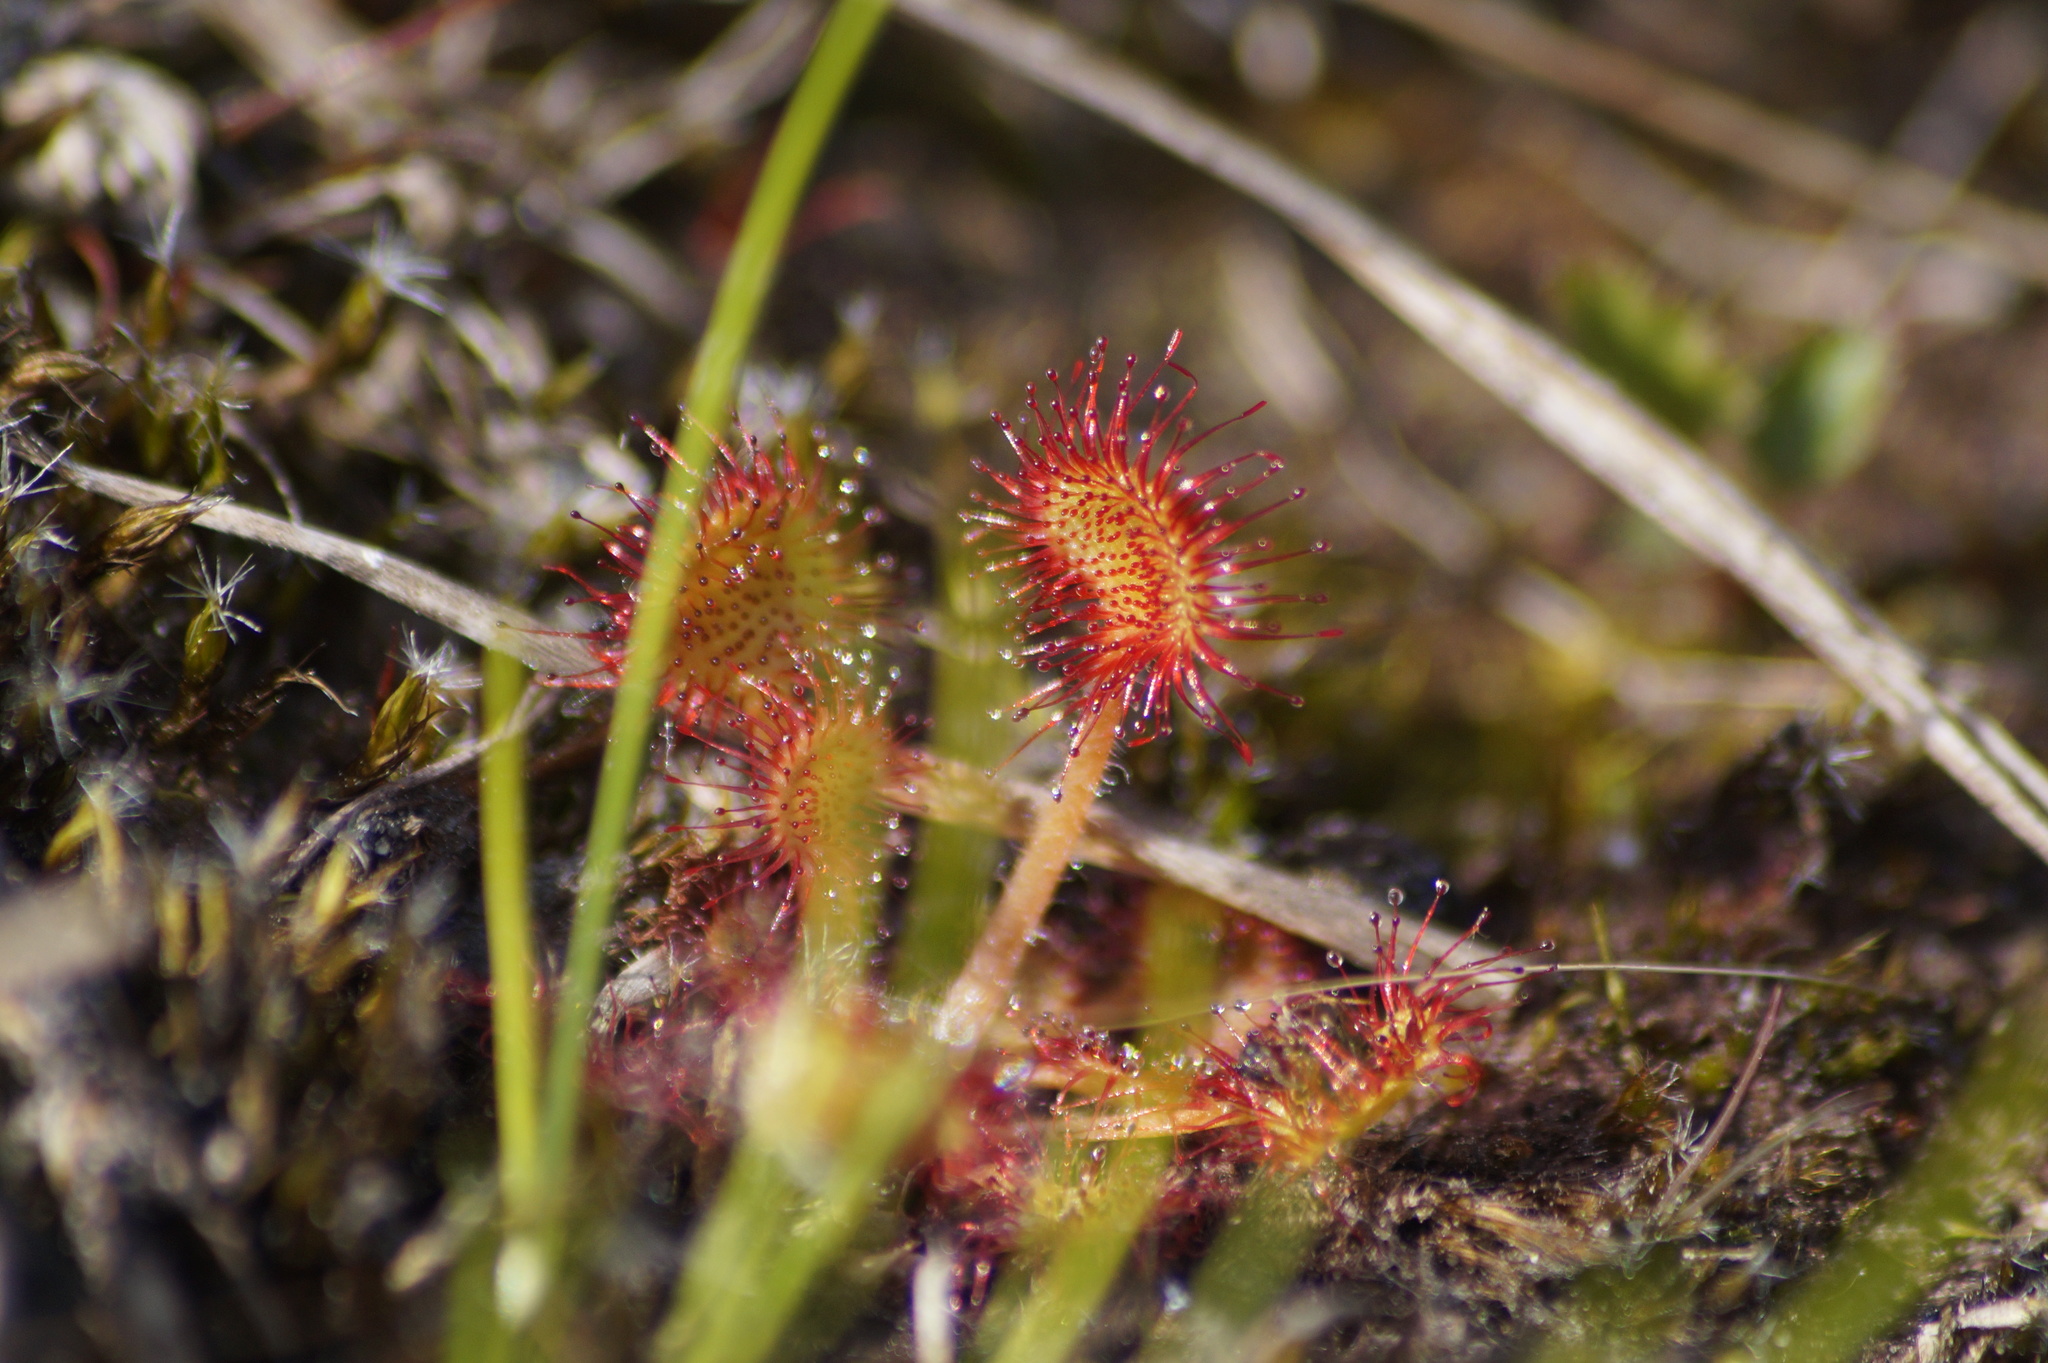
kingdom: Plantae
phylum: Tracheophyta
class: Magnoliopsida
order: Caryophyllales
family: Droseraceae
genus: Drosera
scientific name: Drosera rotundifolia
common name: Round-leaved sundew
